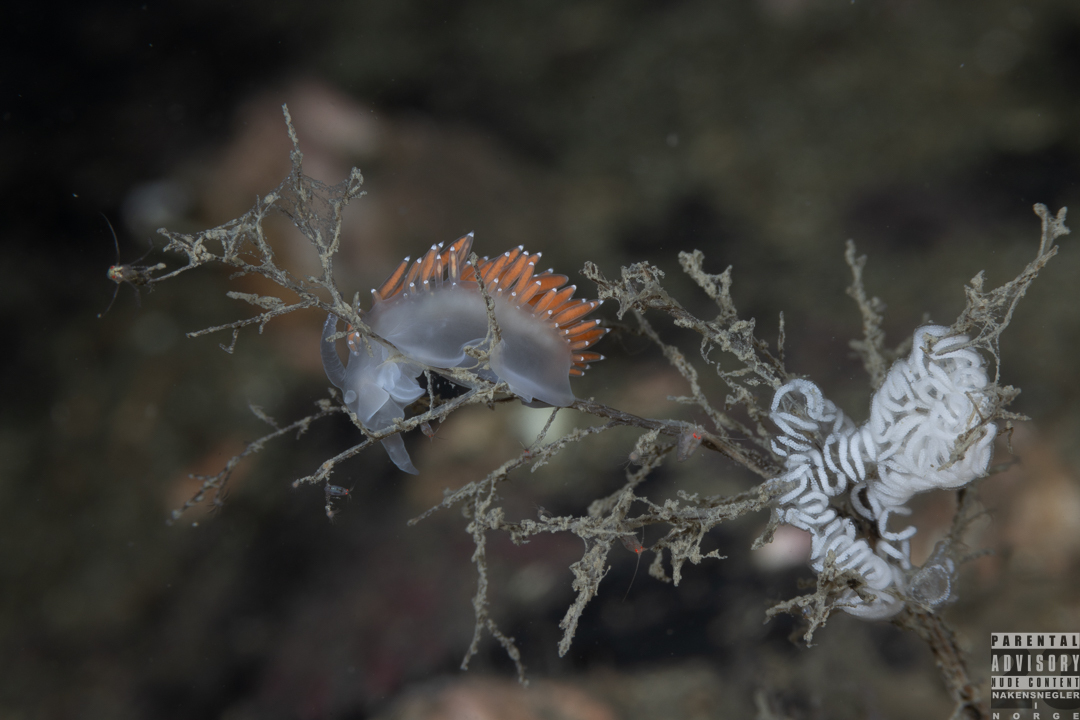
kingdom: Animalia
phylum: Mollusca
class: Gastropoda
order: Nudibranchia
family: Coryphellidae
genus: Coryphella
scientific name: Coryphella verrucosa
